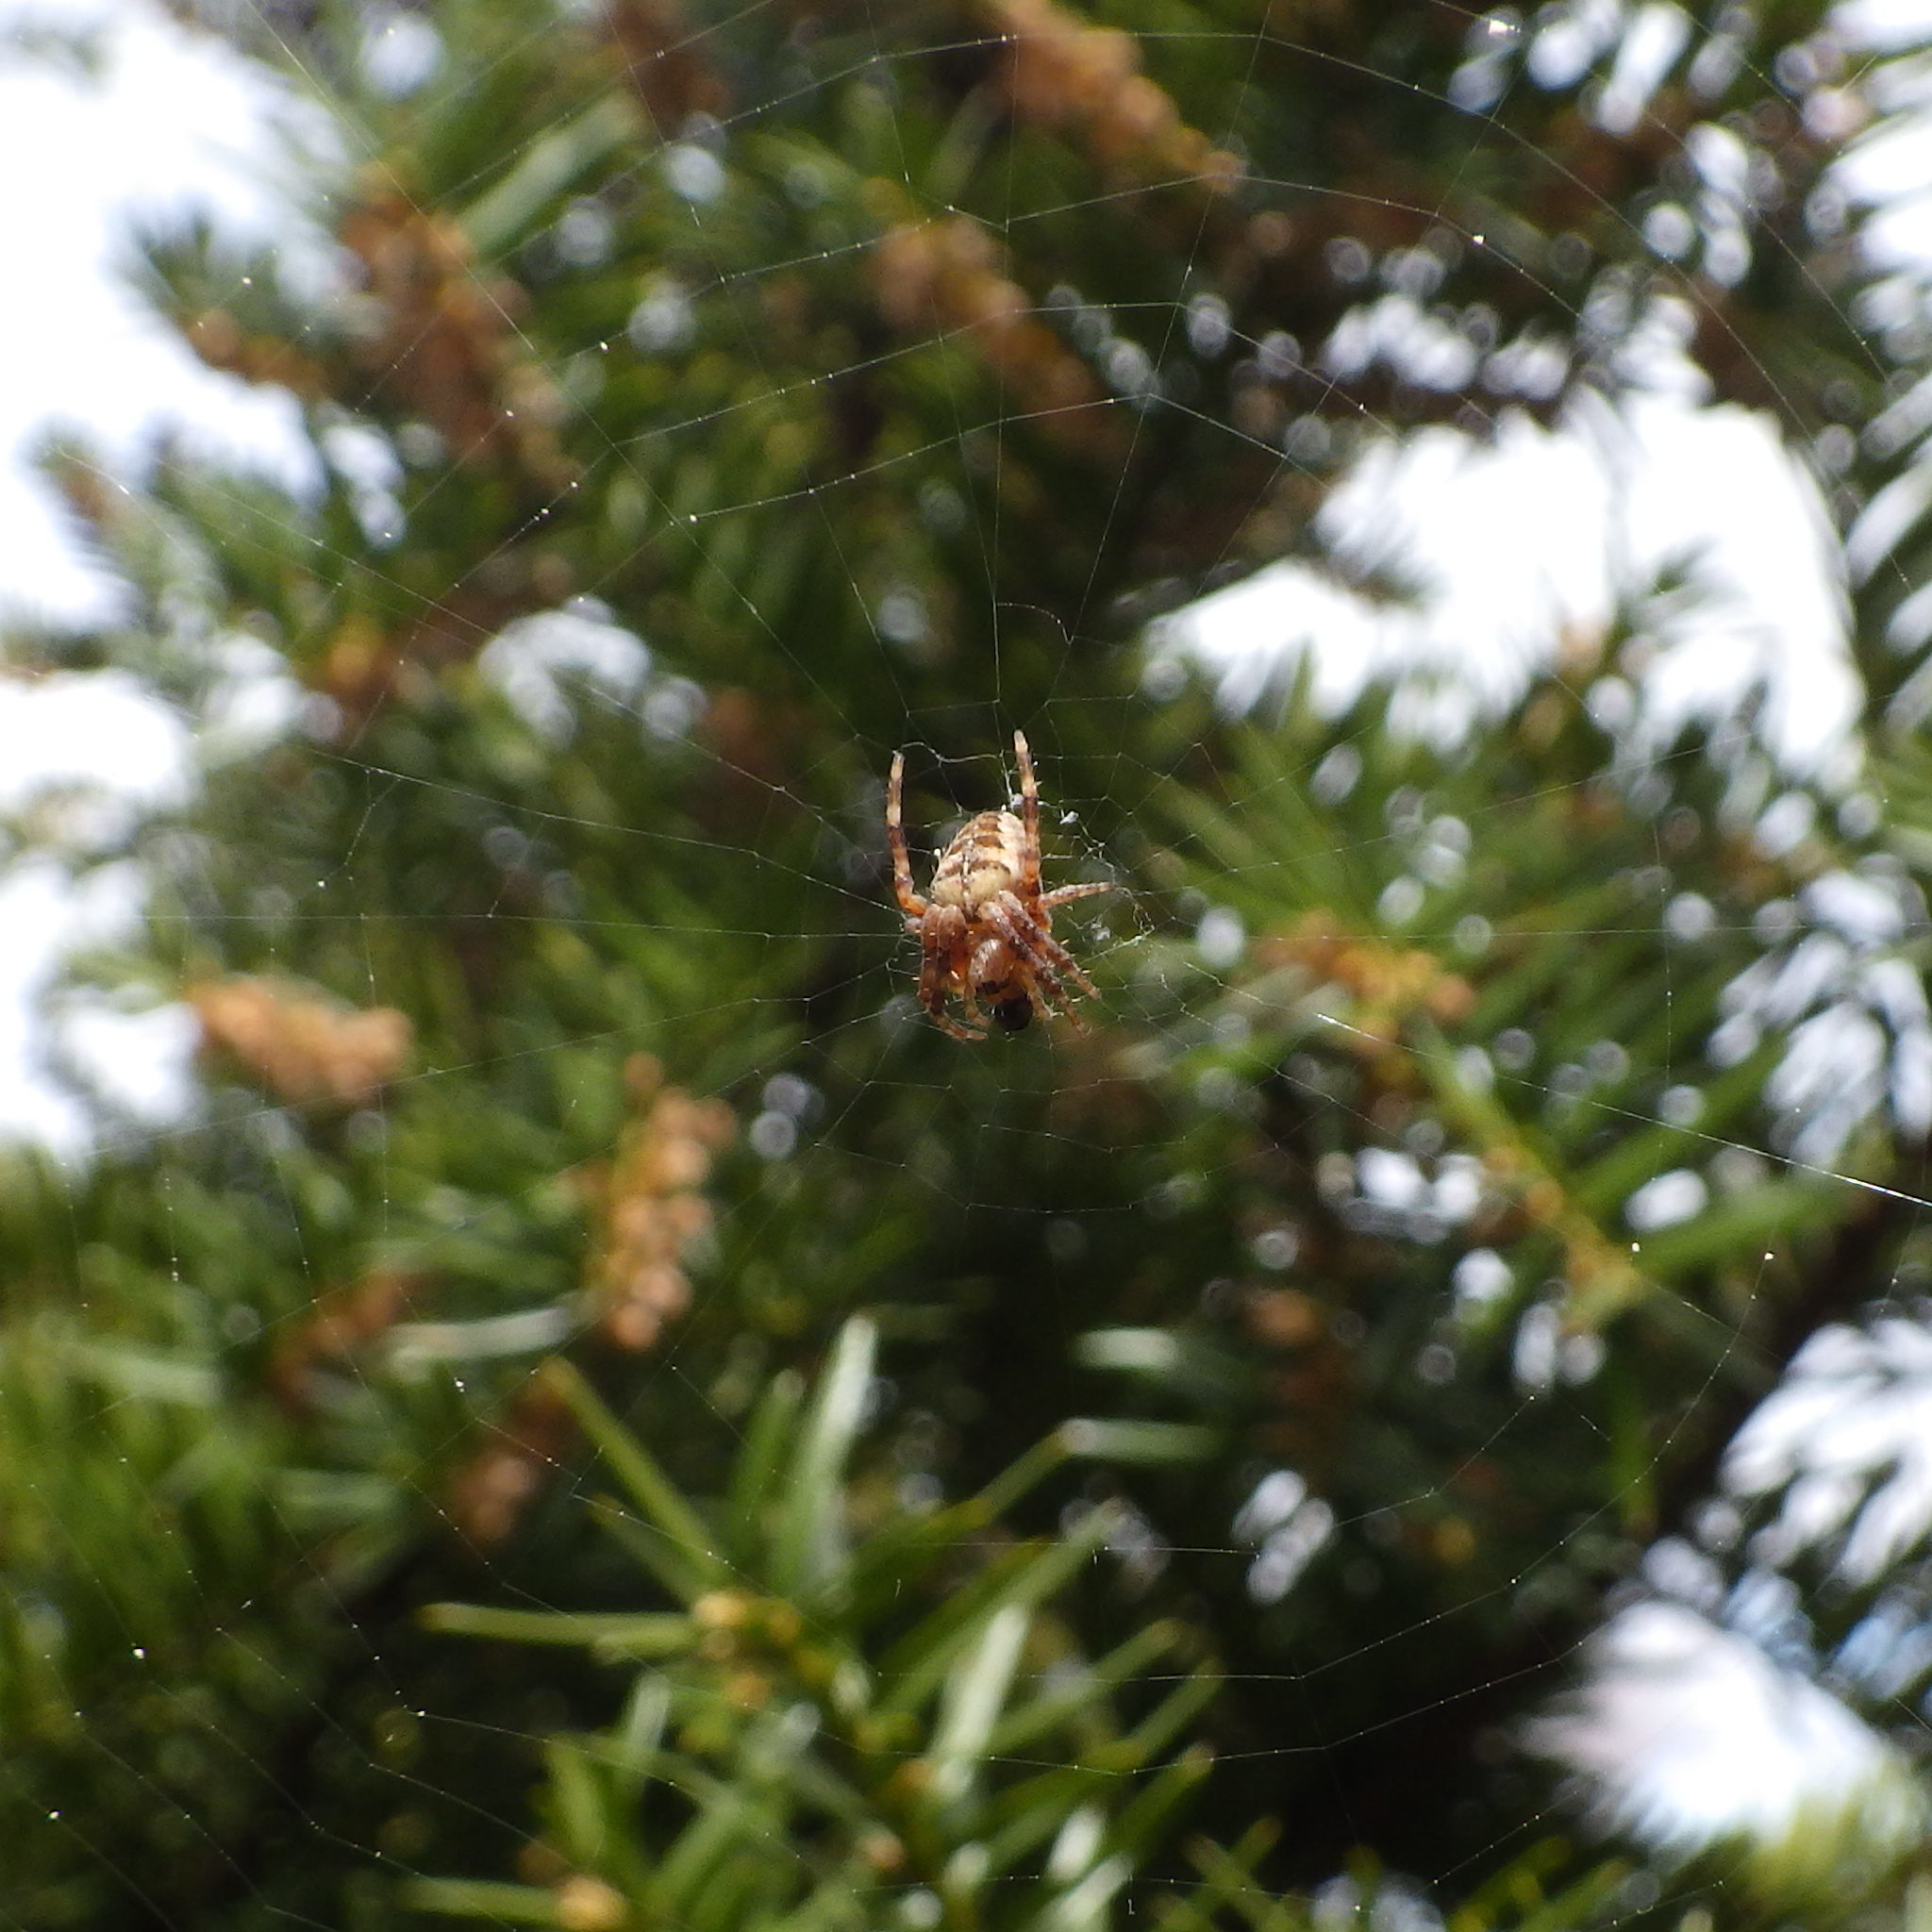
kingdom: Animalia
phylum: Arthropoda
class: Arachnida
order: Araneae
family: Araneidae
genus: Araneus
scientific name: Araneus diadematus
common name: Cross orbweaver
